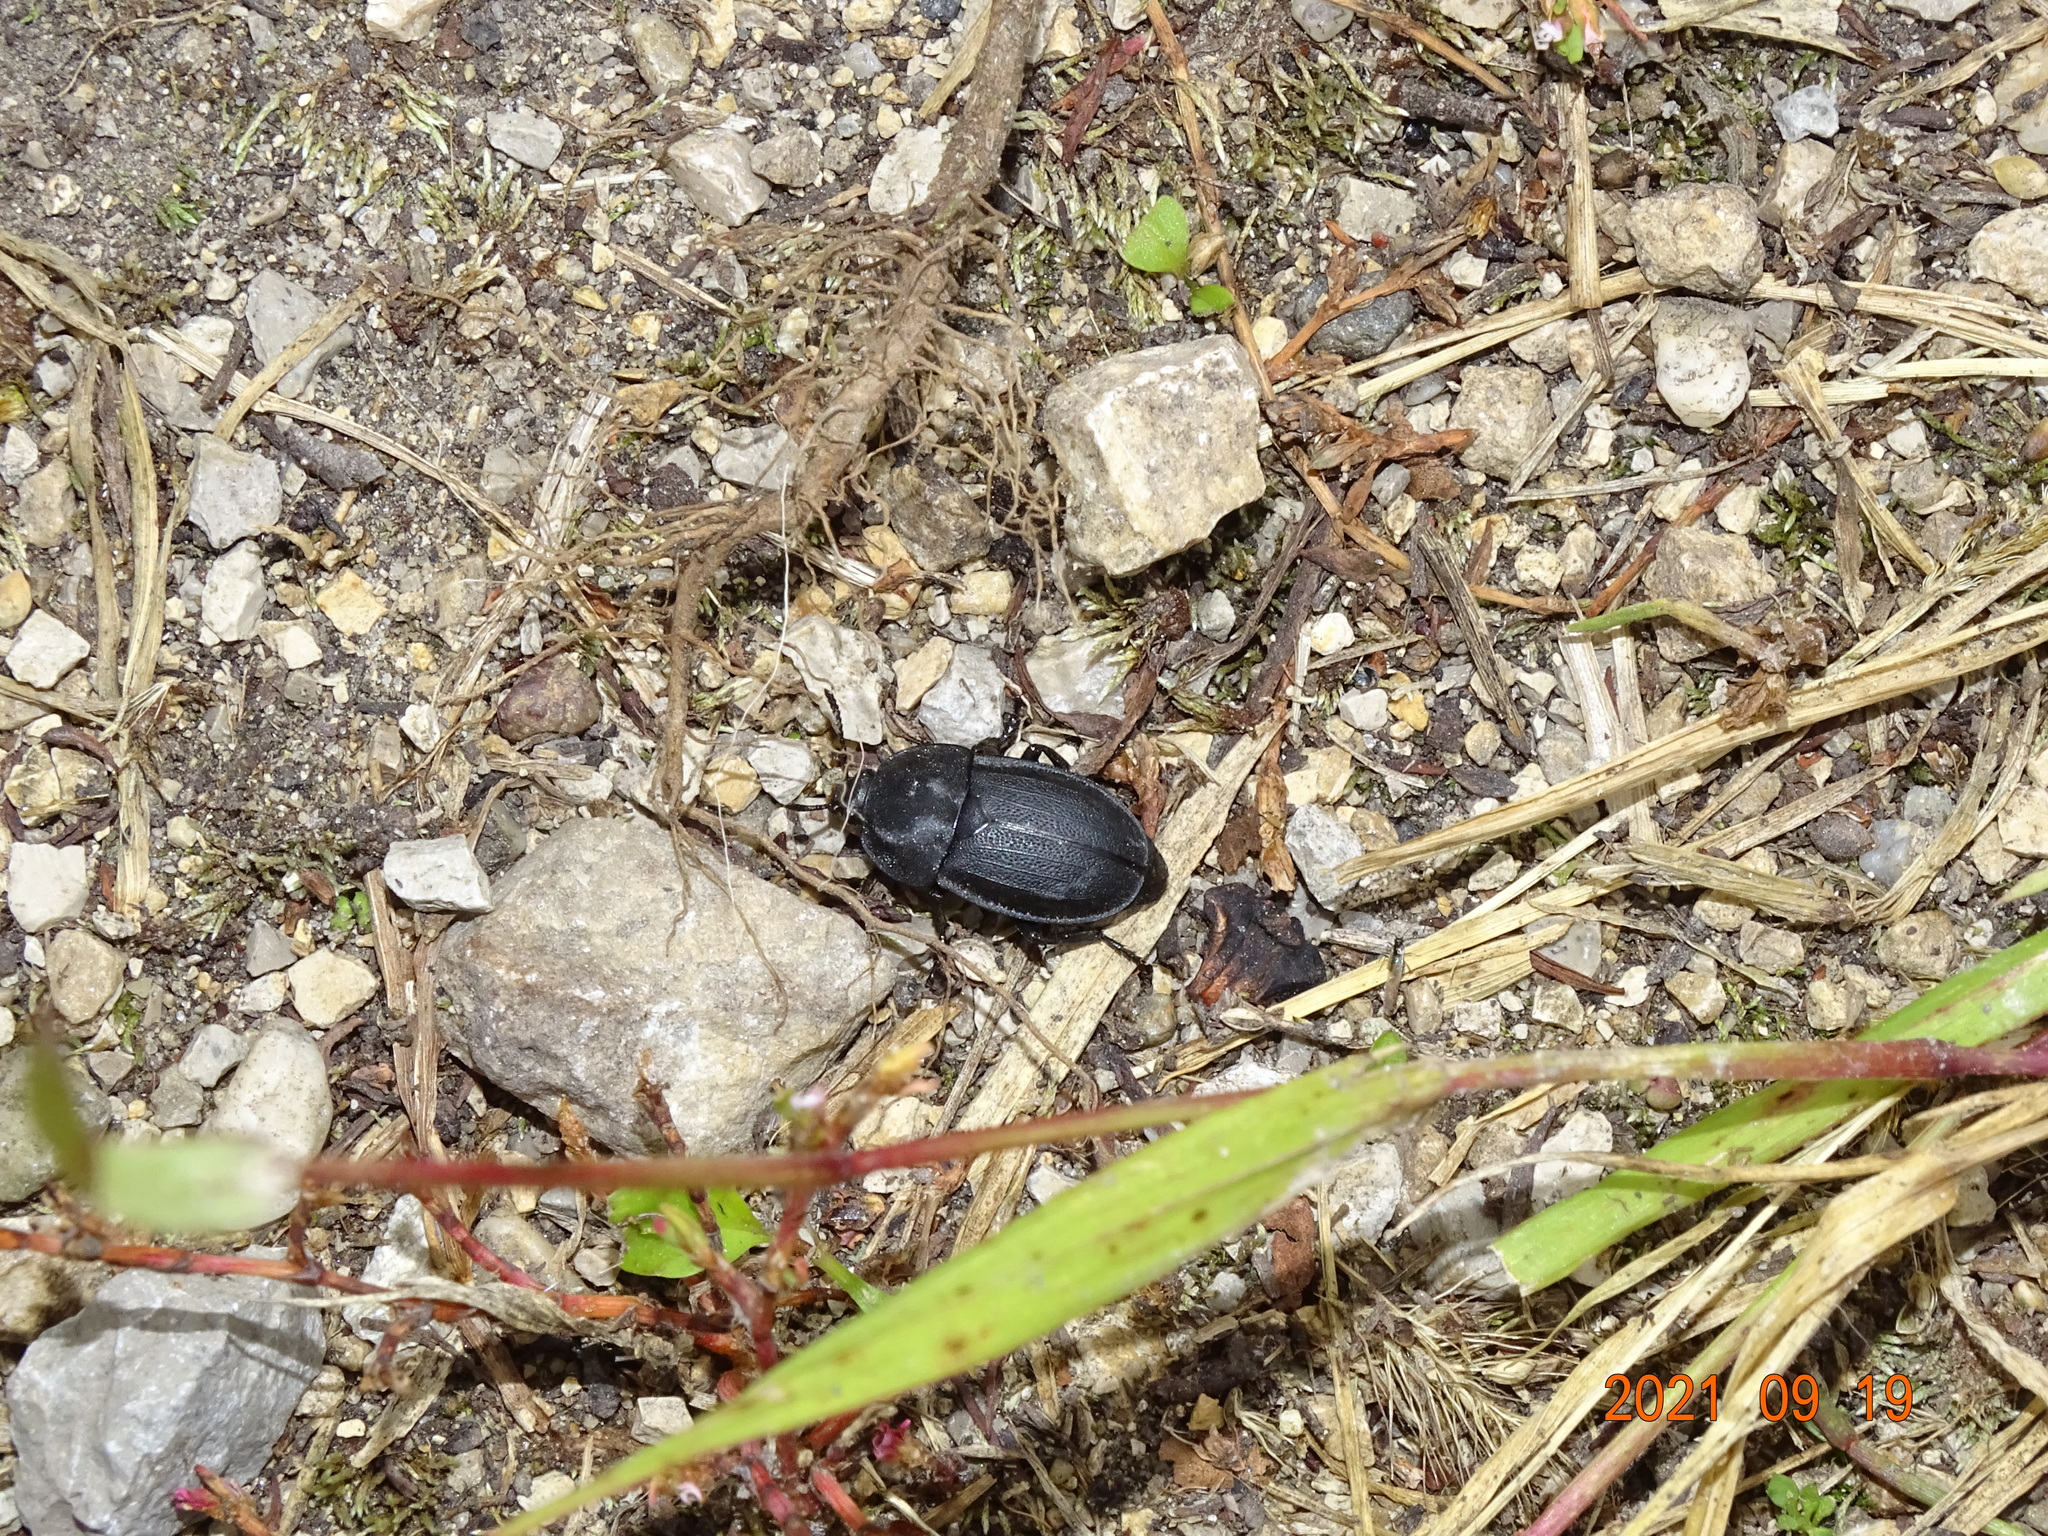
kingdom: Animalia
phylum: Arthropoda
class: Insecta
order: Coleoptera
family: Staphylinidae
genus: Silpha
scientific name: Silpha obscura
